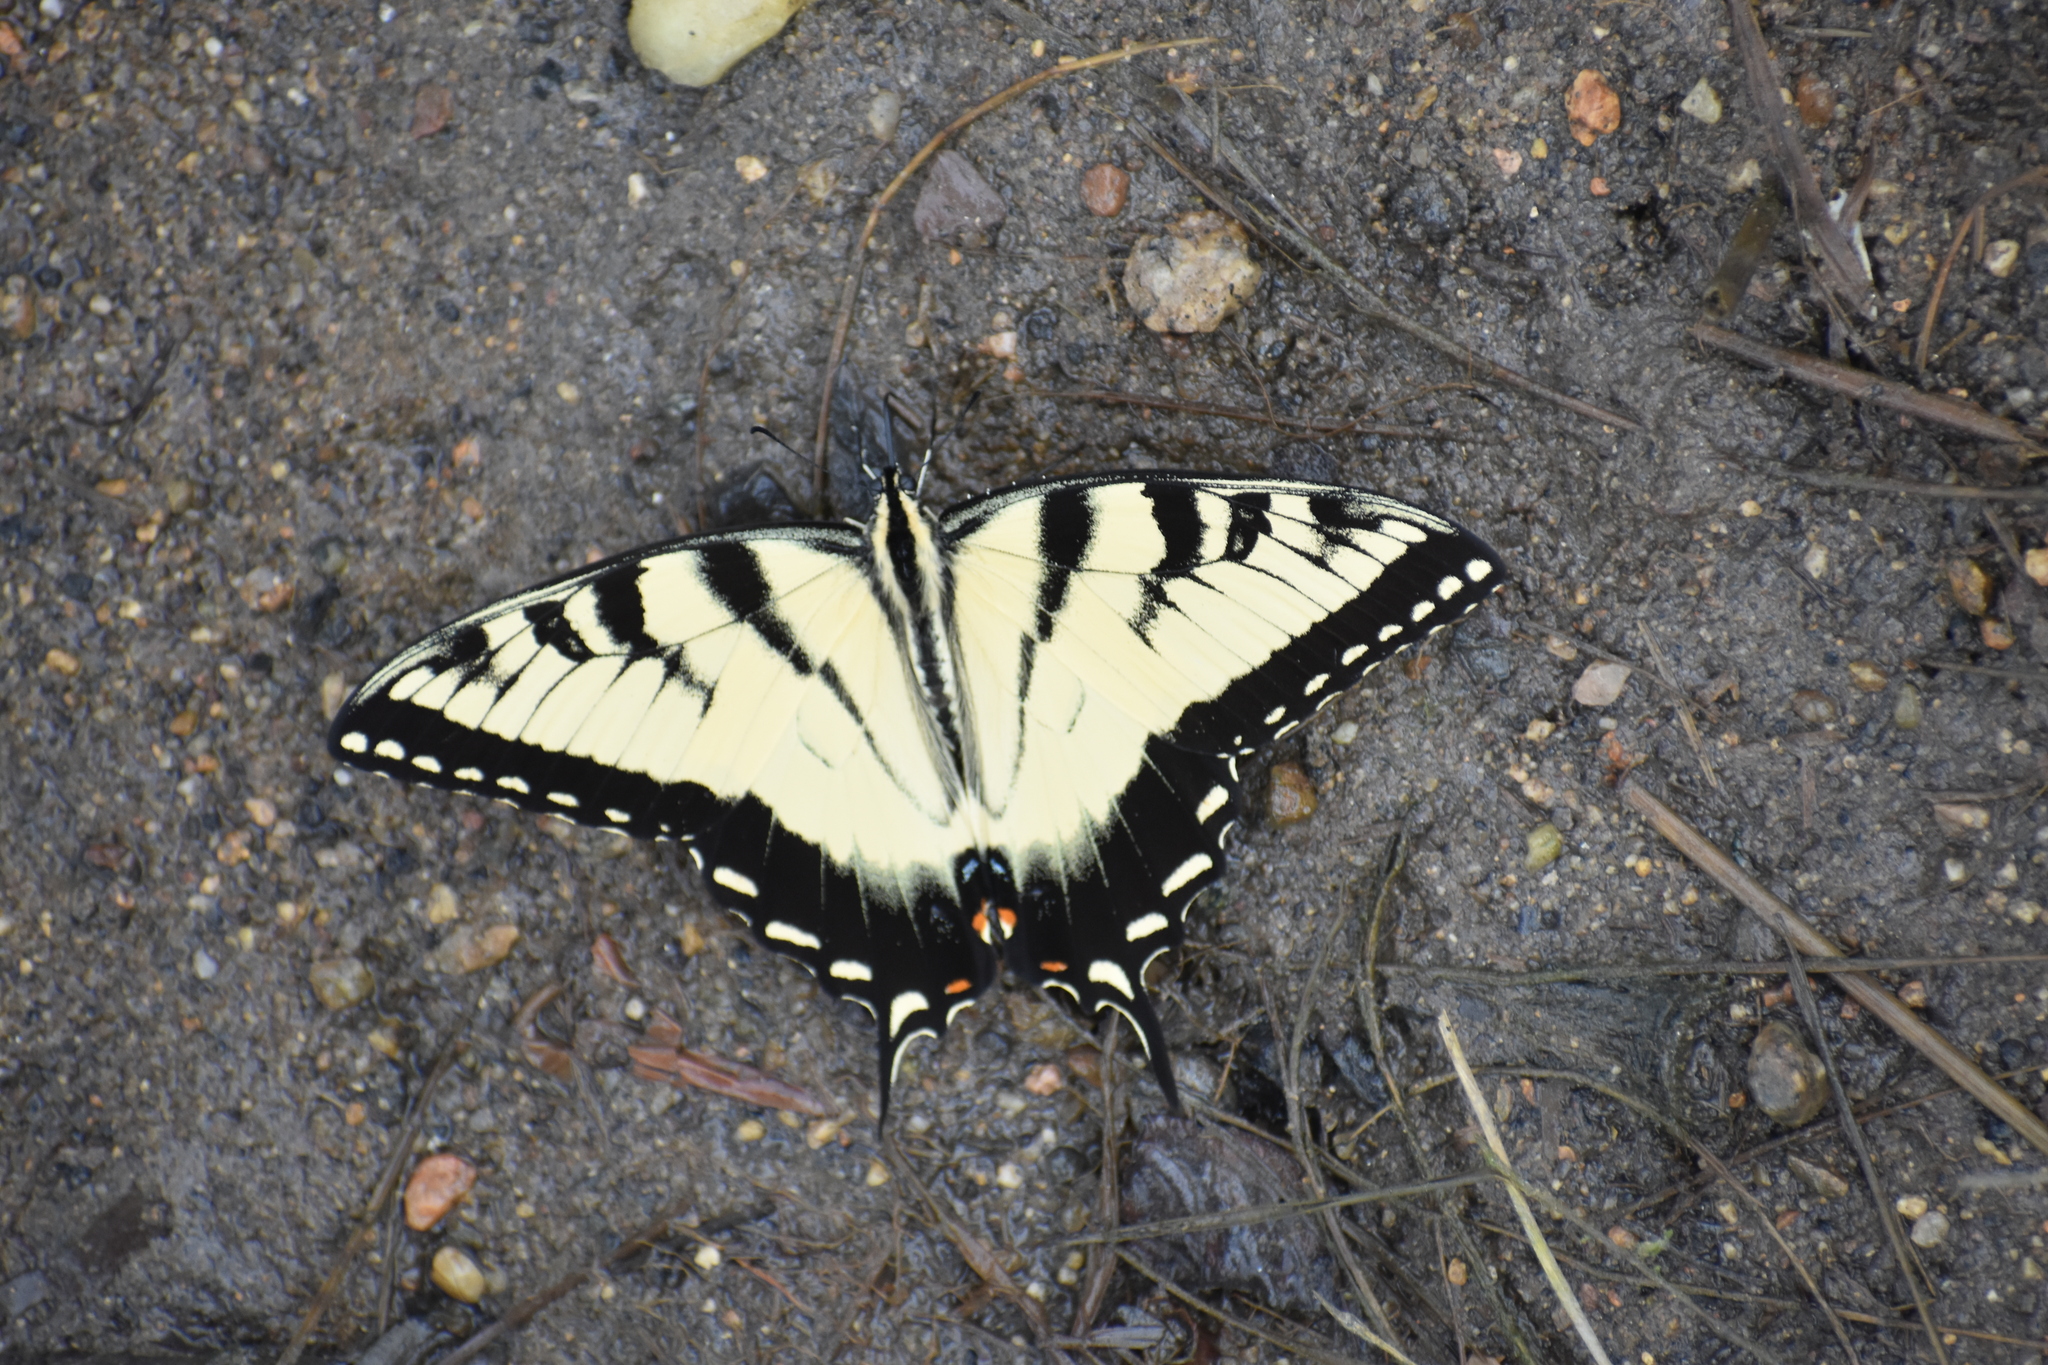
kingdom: Animalia
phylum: Arthropoda
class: Insecta
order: Lepidoptera
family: Papilionidae
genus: Papilio
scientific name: Papilio glaucus
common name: Tiger swallowtail
